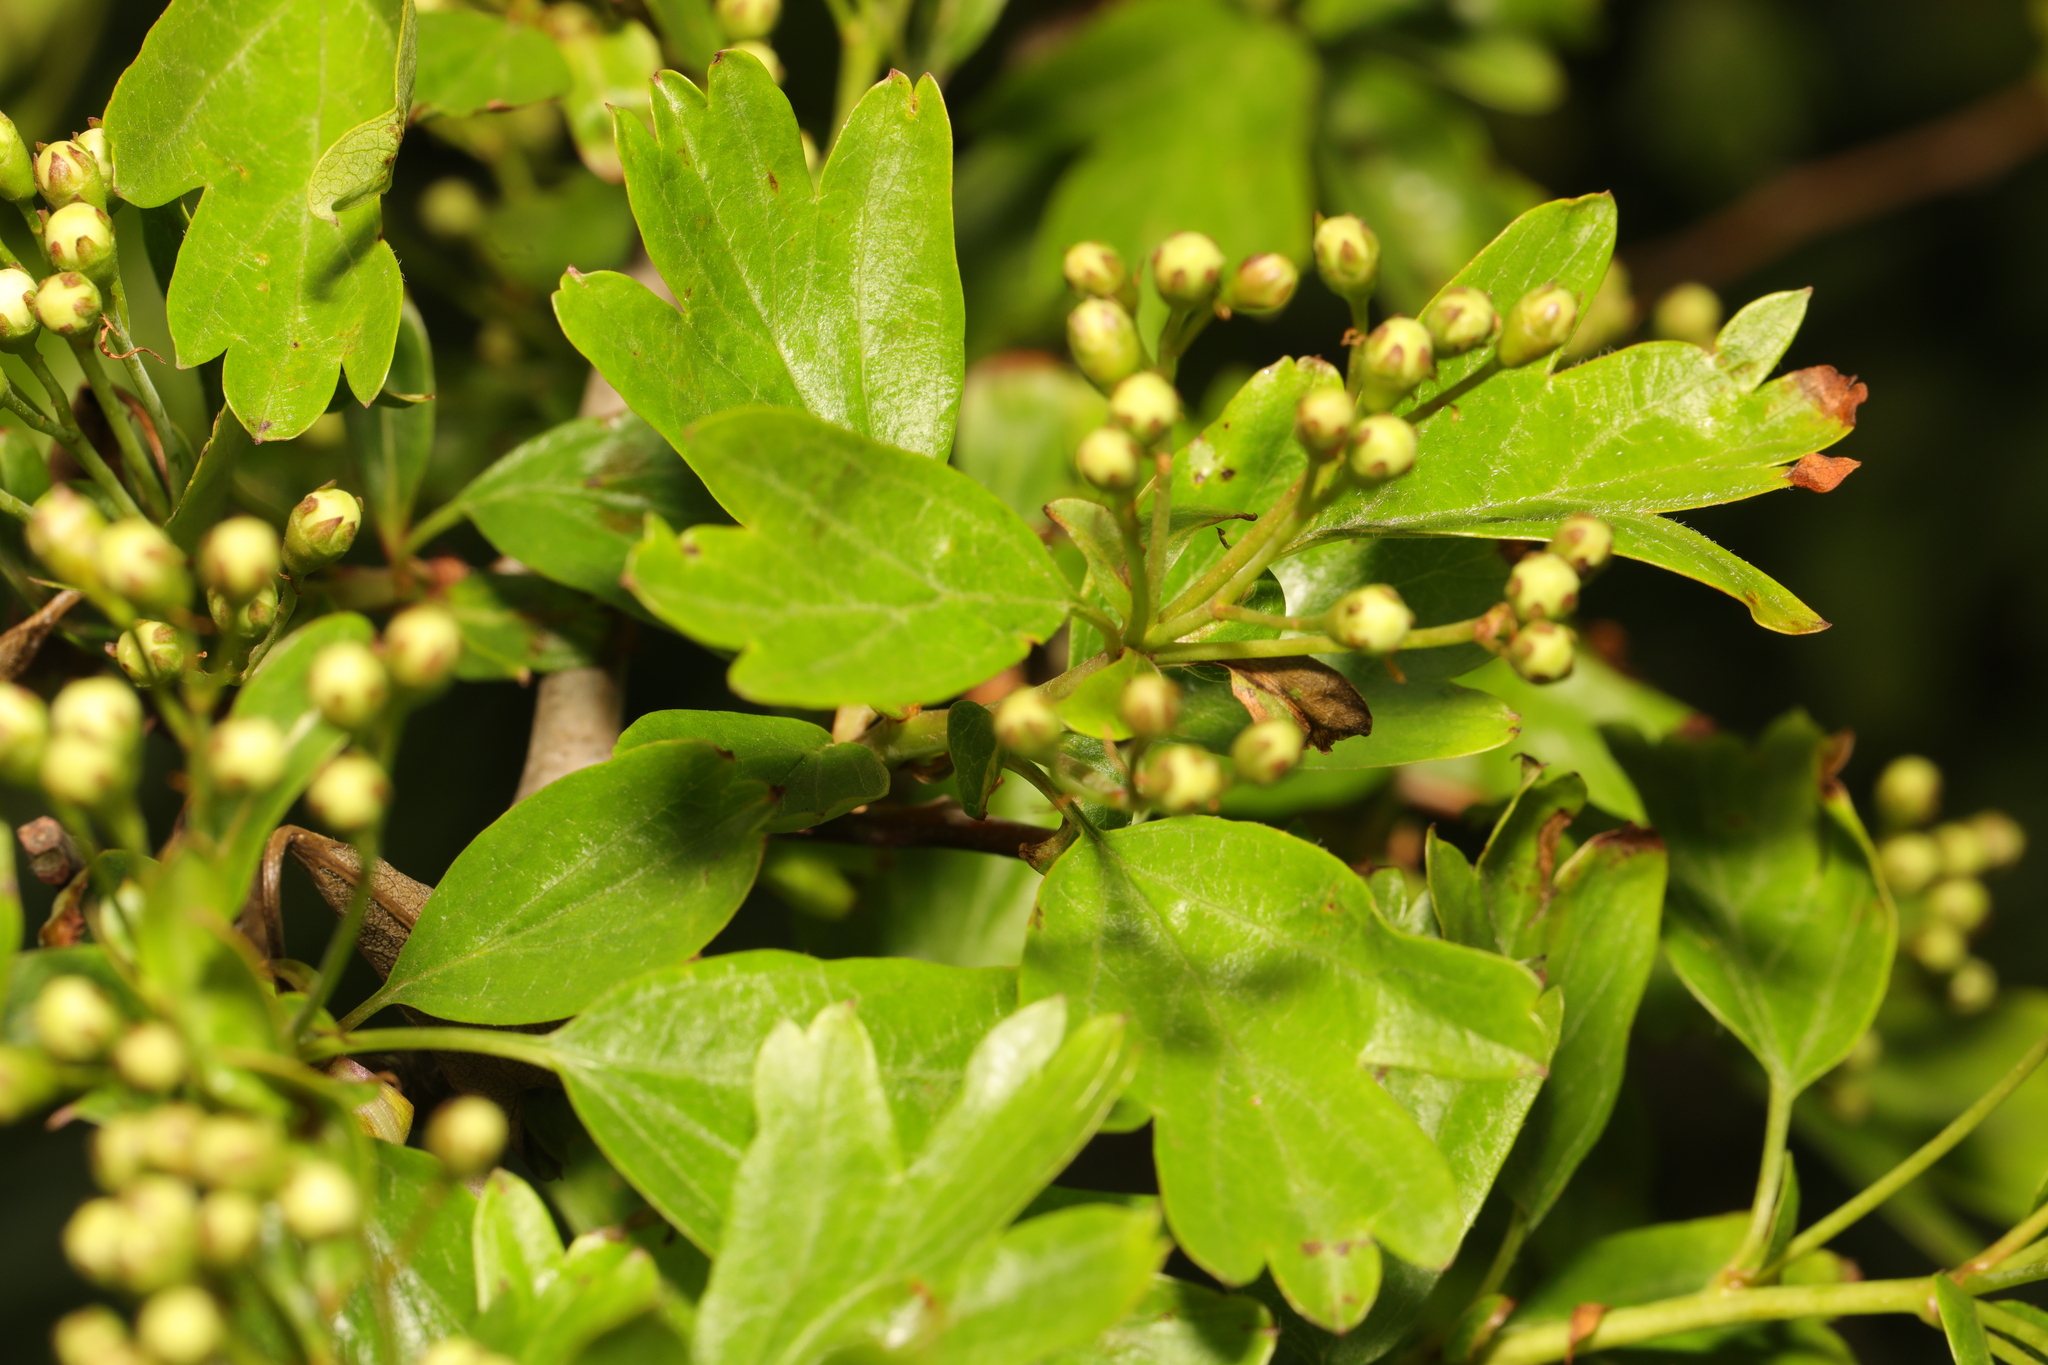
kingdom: Plantae
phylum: Tracheophyta
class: Magnoliopsida
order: Rosales
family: Rosaceae
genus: Crataegus
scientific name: Crataegus monogyna
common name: Hawthorn
